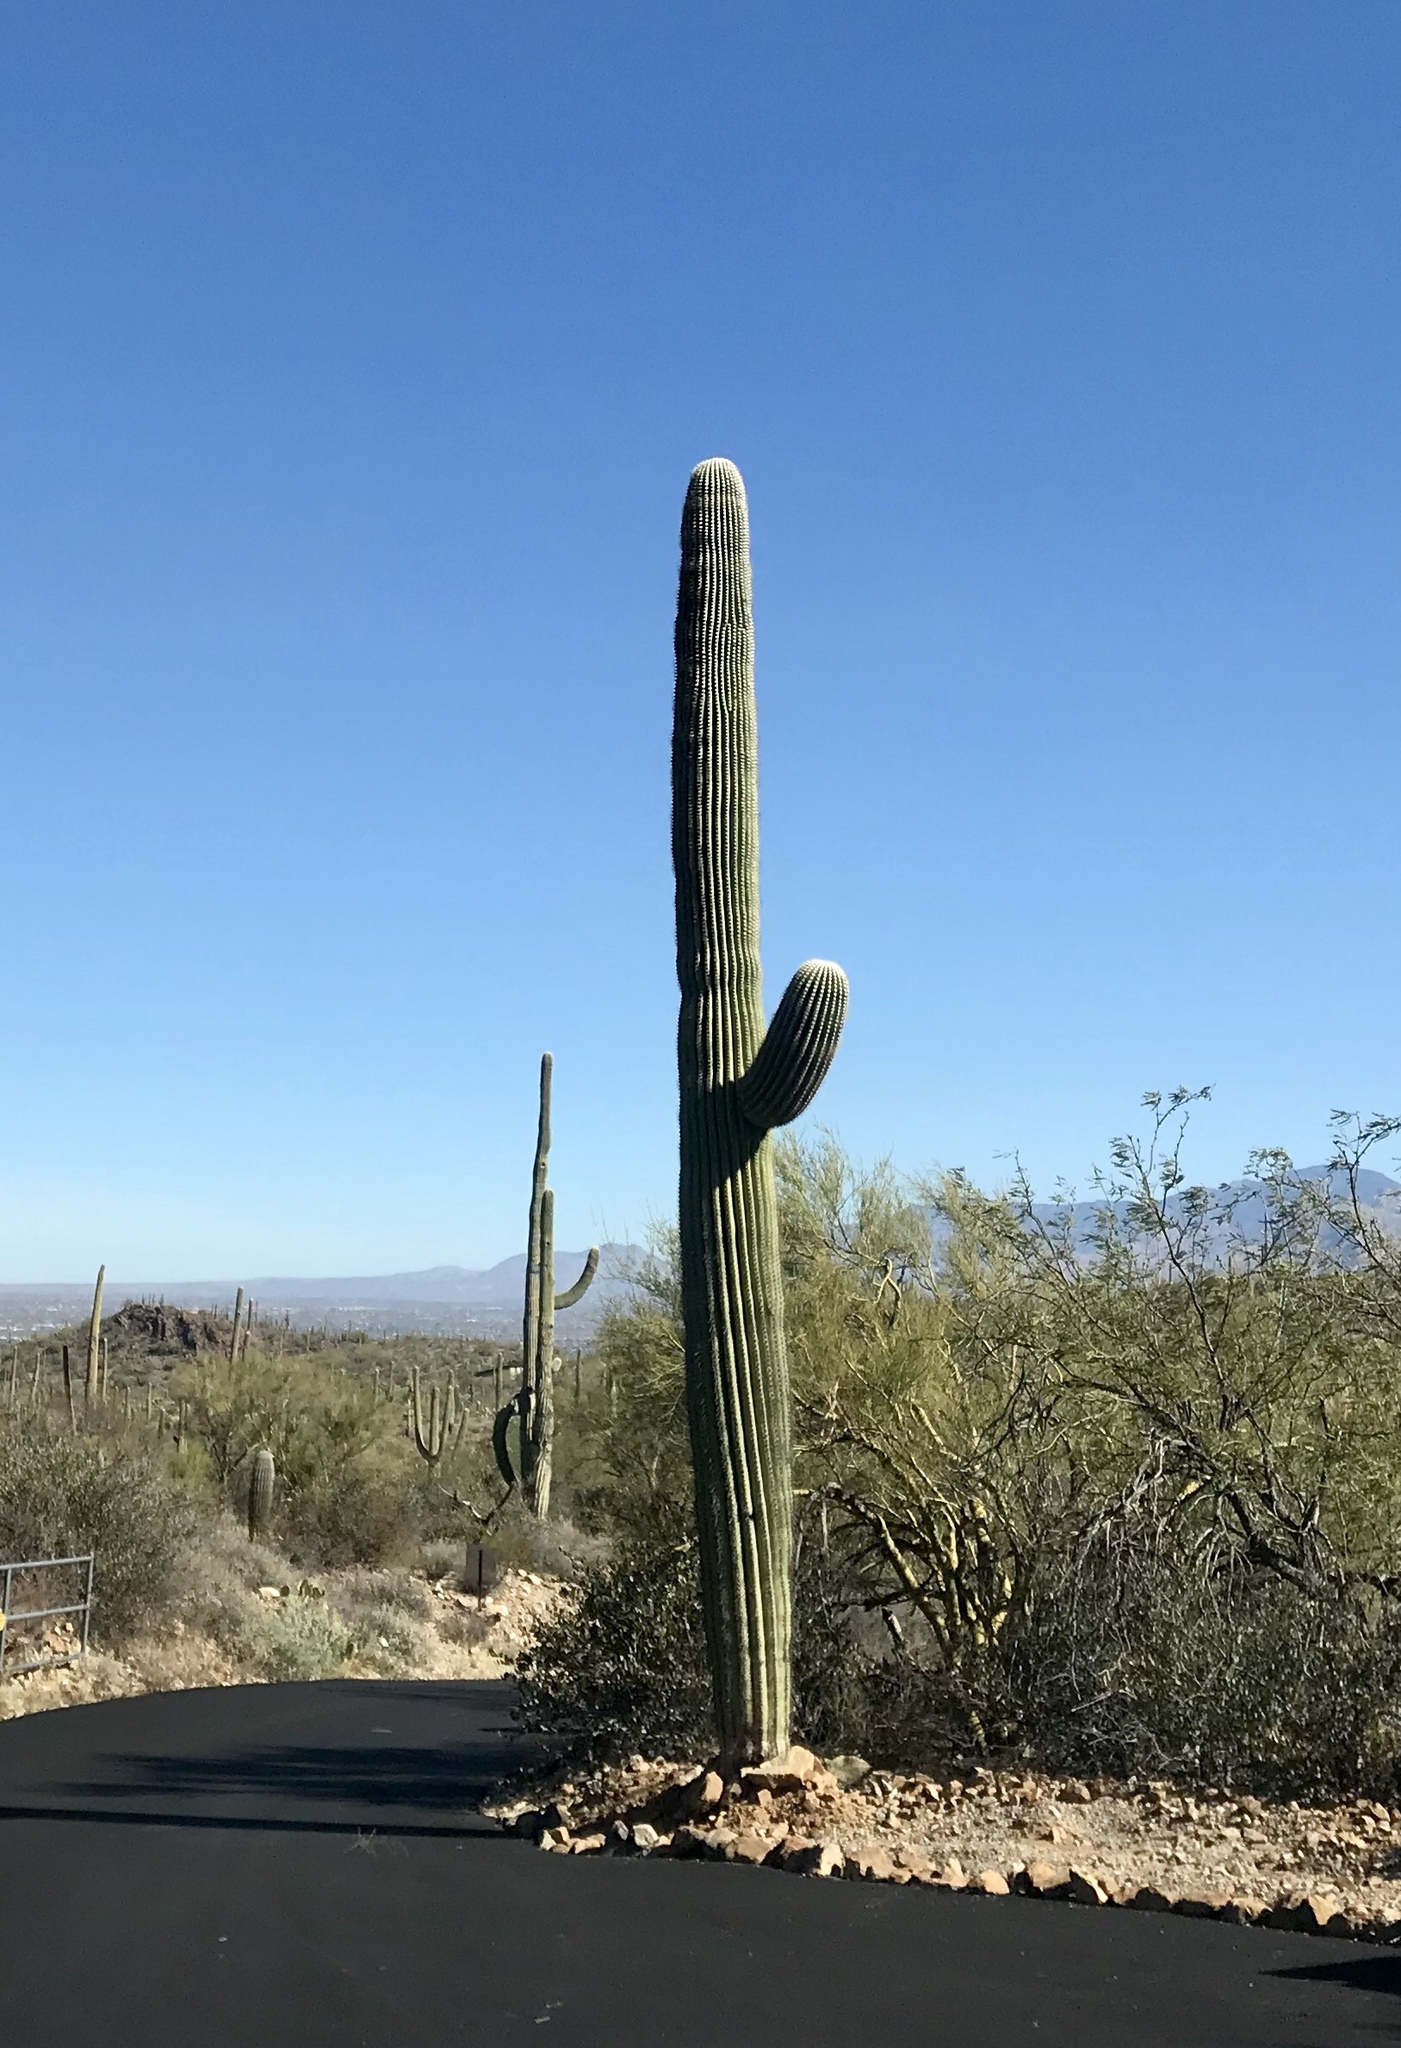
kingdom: Plantae
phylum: Tracheophyta
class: Magnoliopsida
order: Caryophyllales
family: Cactaceae
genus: Carnegiea
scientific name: Carnegiea gigantea
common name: Saguaro
